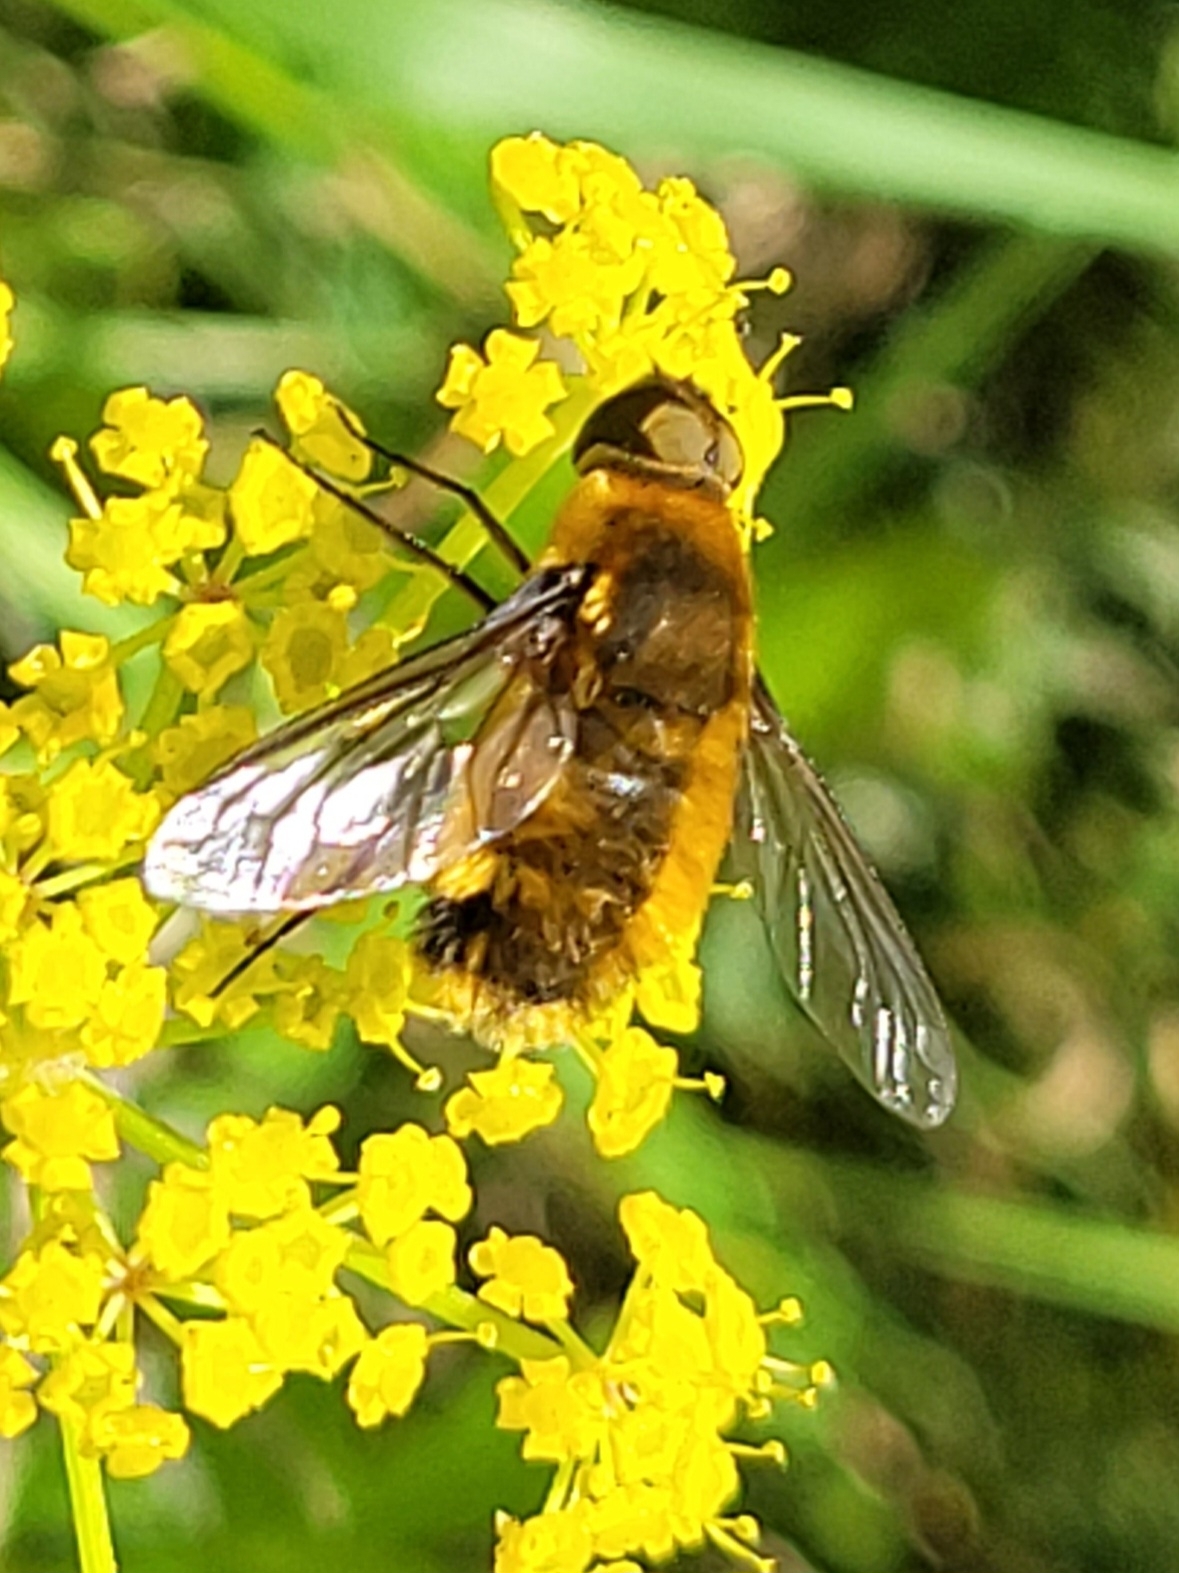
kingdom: Animalia
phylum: Arthropoda
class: Insecta
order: Diptera
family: Bombyliidae
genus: Villa
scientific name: Villa hottentotta
